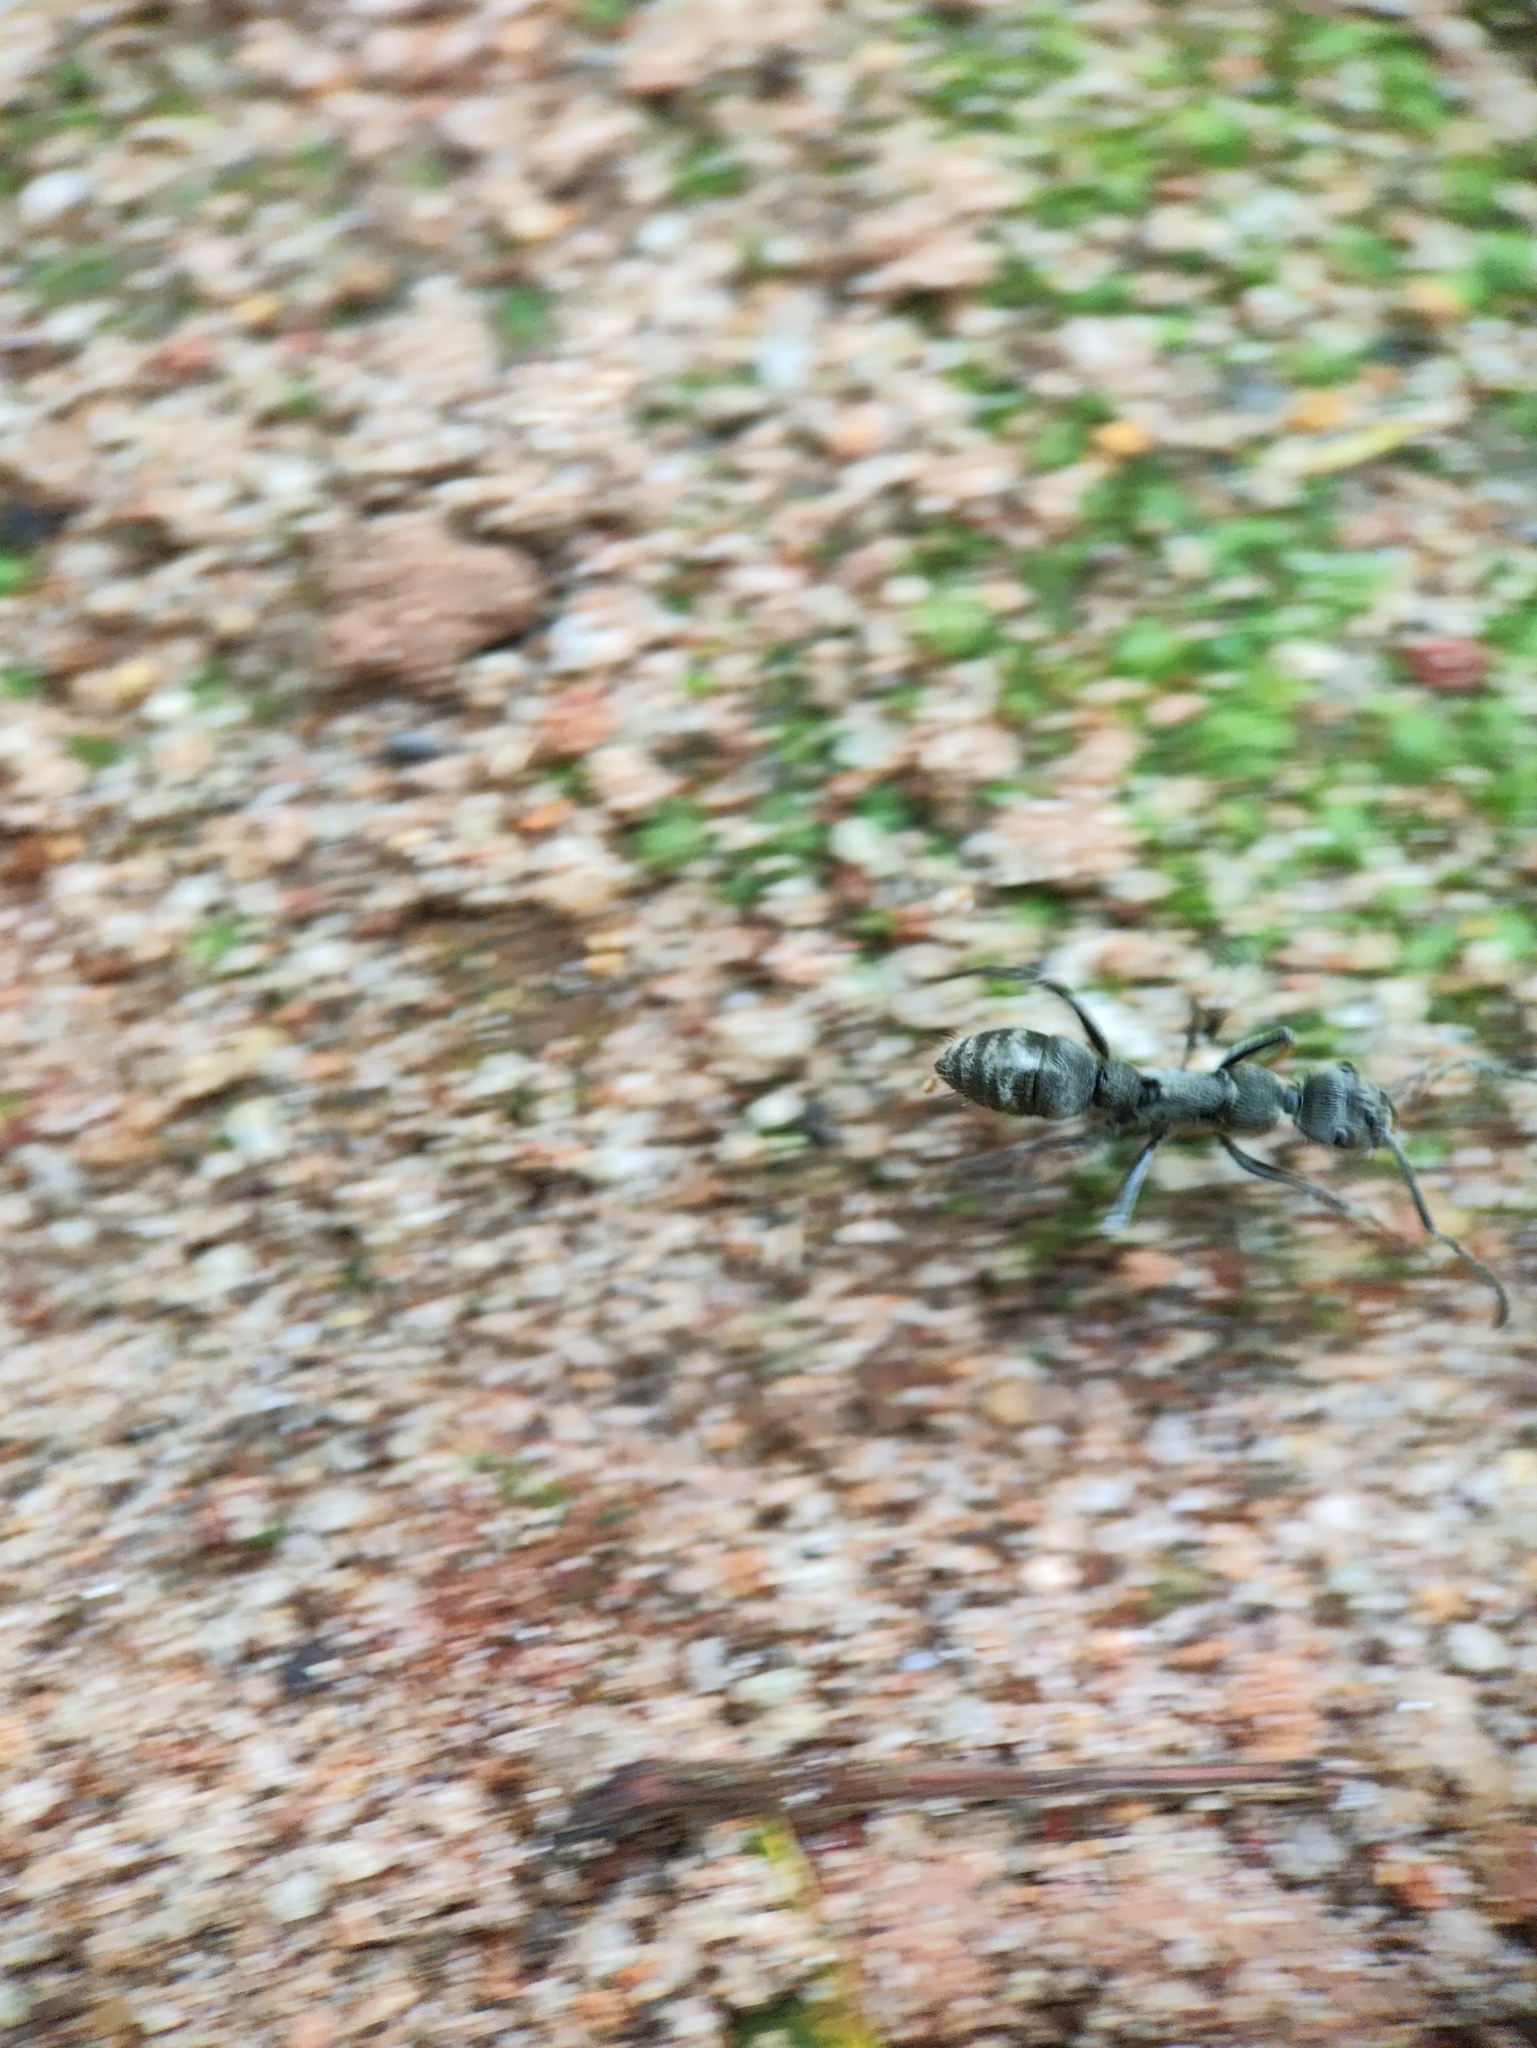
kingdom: Animalia
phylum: Arthropoda
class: Insecta
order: Hymenoptera
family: Formicidae
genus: Diacamma
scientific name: Diacamma rugosum
